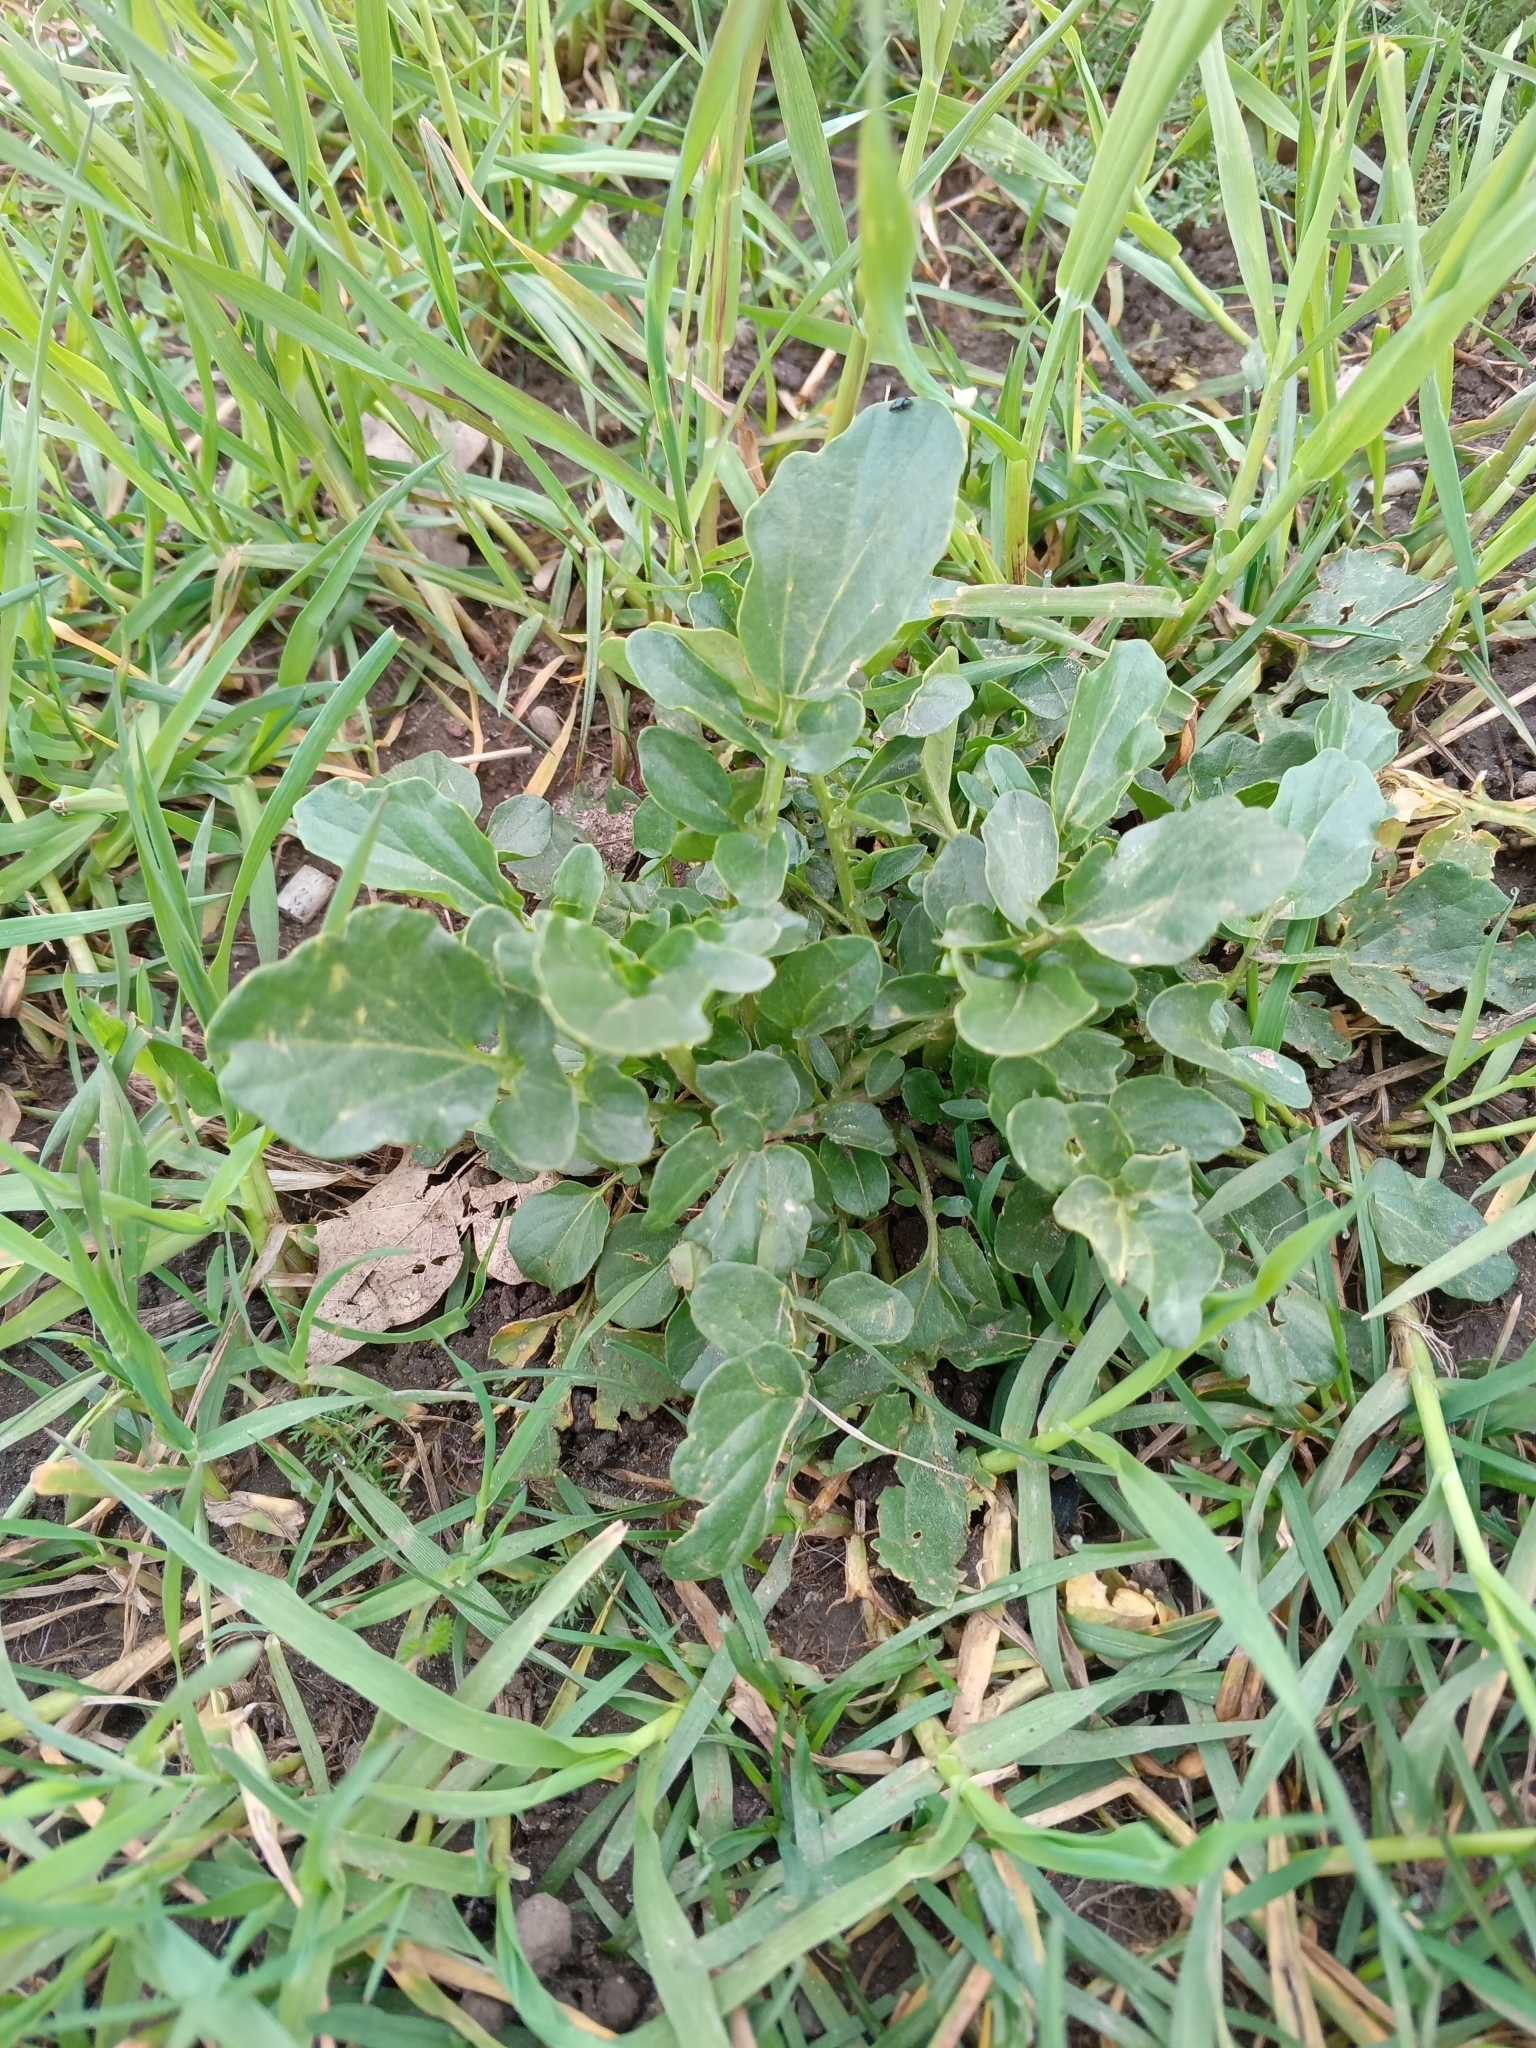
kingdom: Plantae
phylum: Tracheophyta
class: Magnoliopsida
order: Brassicales
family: Brassicaceae
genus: Barbarea
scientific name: Barbarea vulgaris
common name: Cressy-greens
